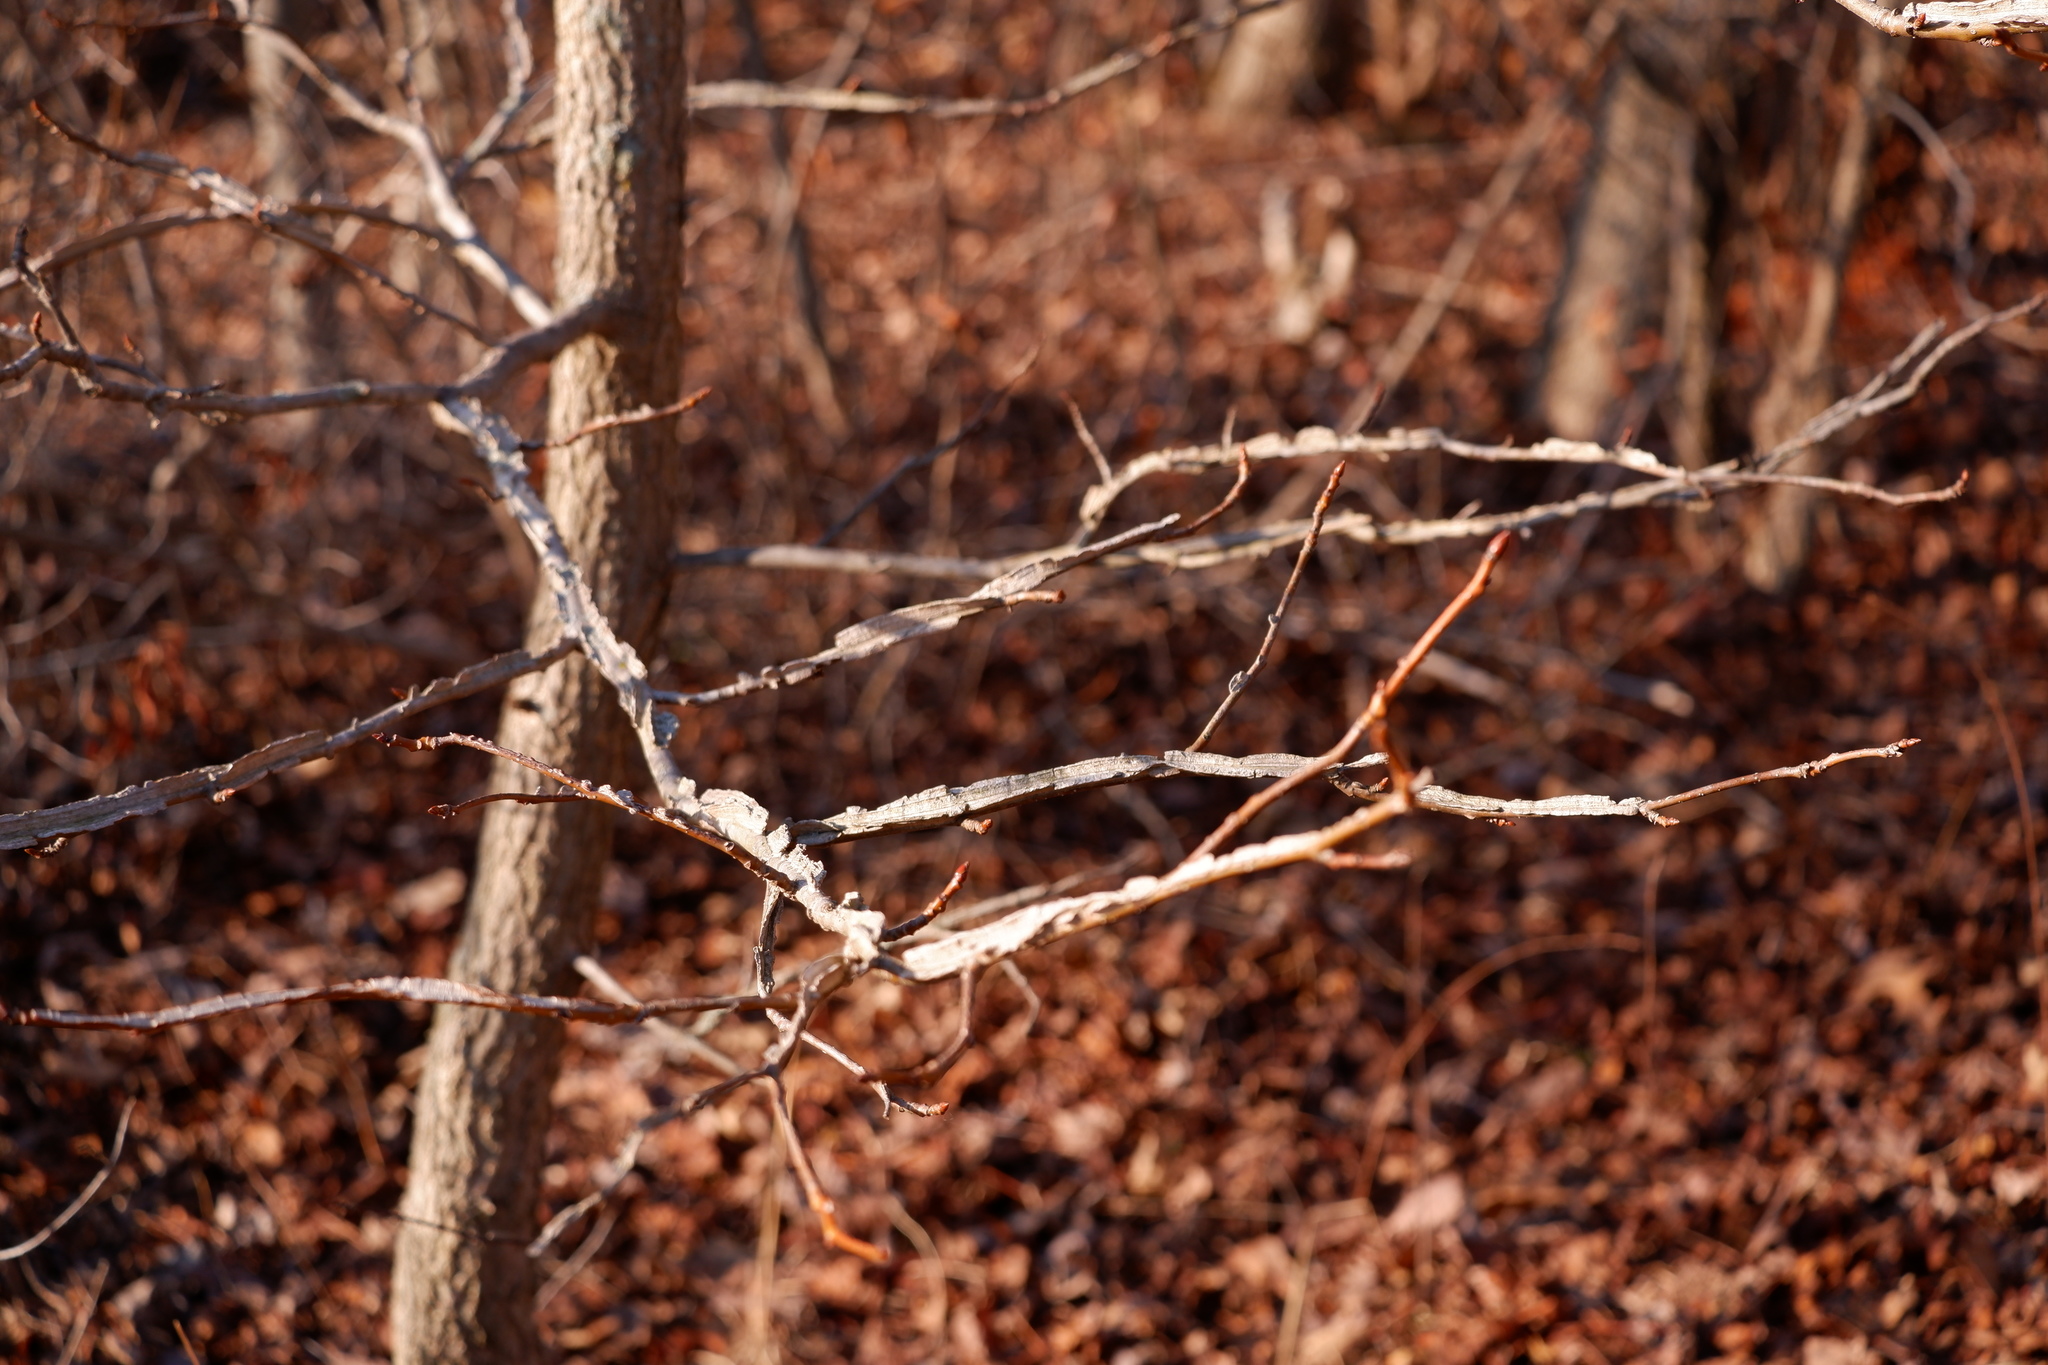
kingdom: Plantae
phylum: Tracheophyta
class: Magnoliopsida
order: Saxifragales
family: Altingiaceae
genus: Liquidambar
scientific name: Liquidambar styraciflua
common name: Sweet gum
